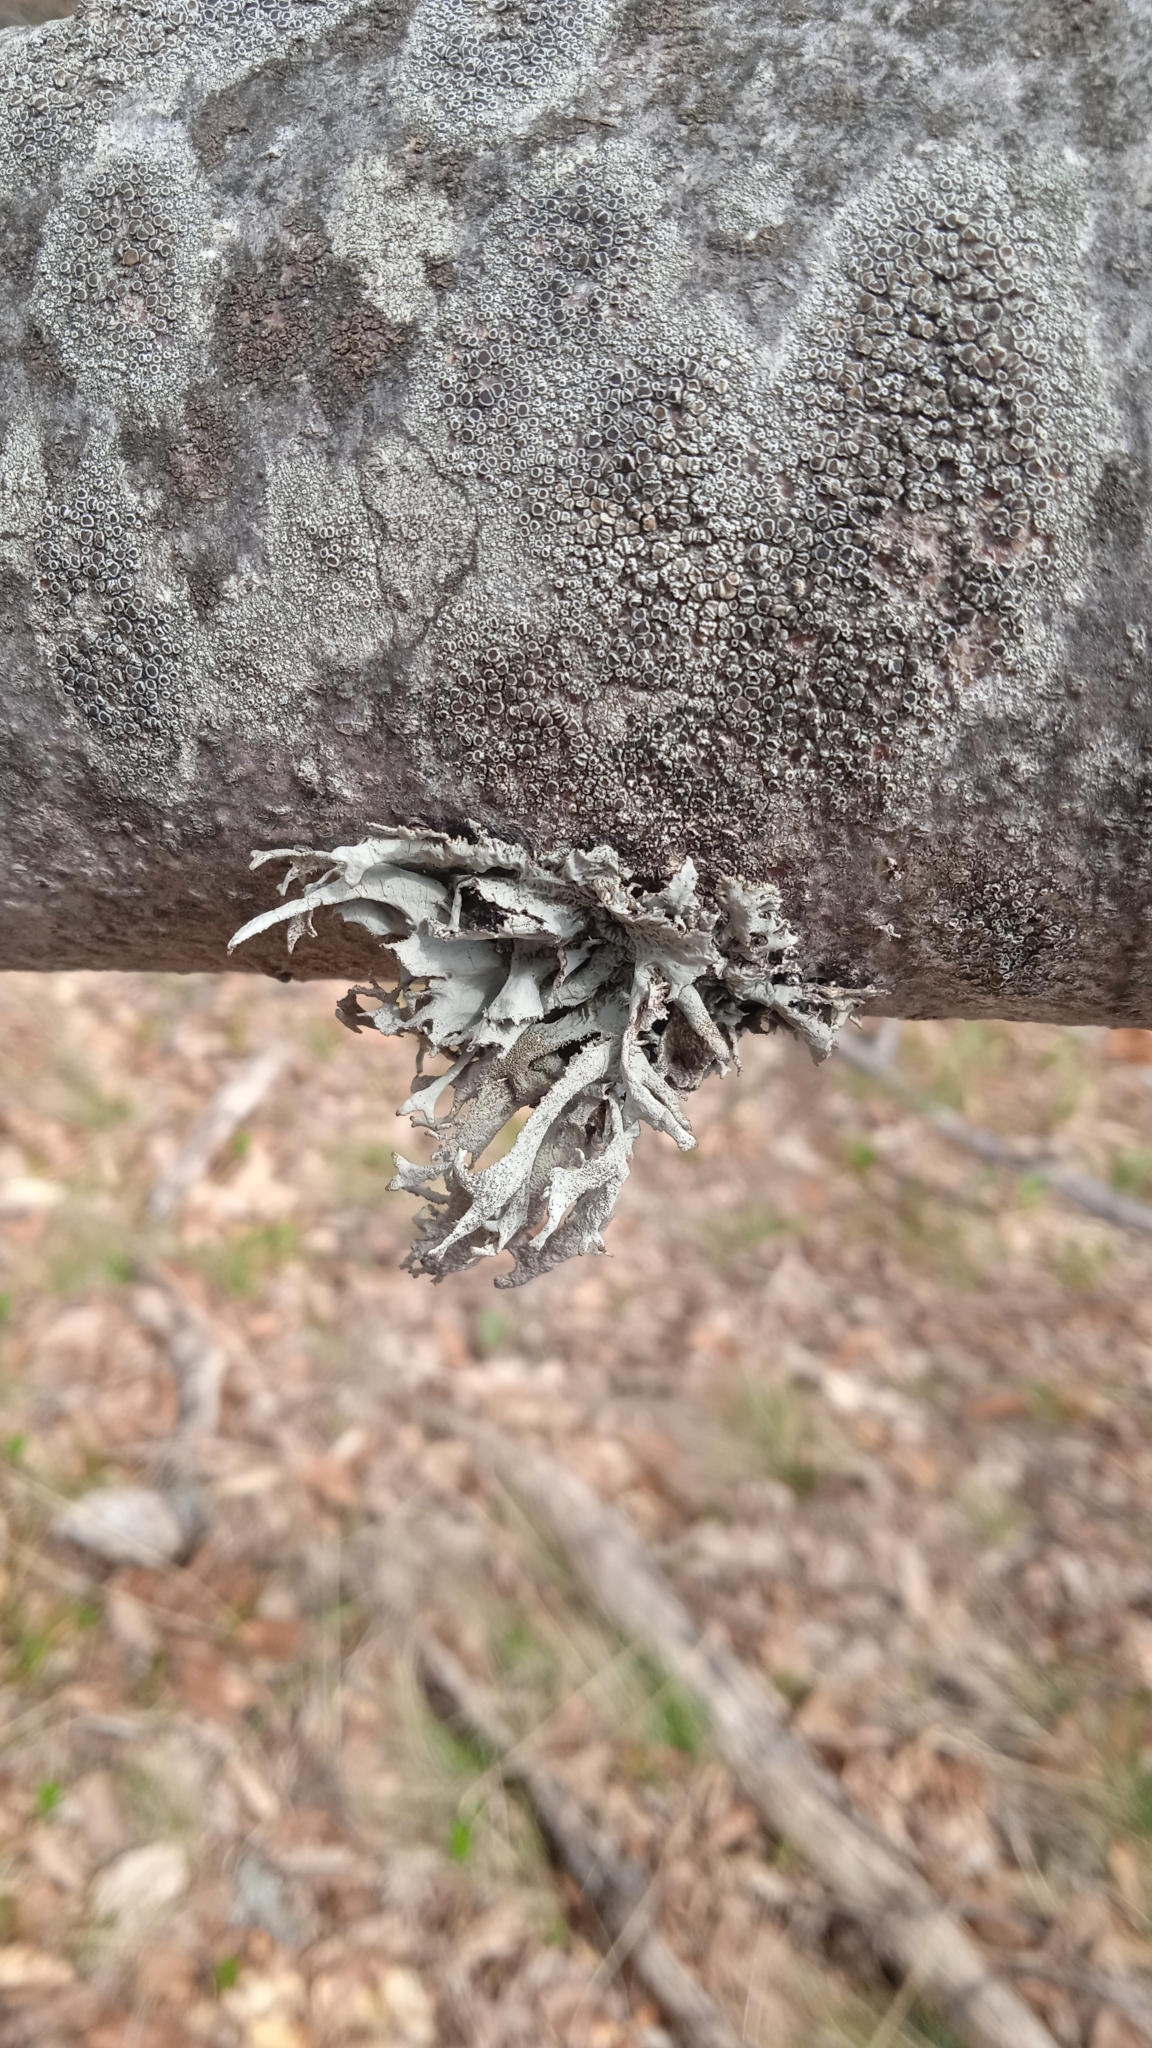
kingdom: Fungi
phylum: Ascomycota
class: Lecanoromycetes
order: Lecanorales
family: Parmeliaceae
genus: Pseudevernia
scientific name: Pseudevernia furfuracea
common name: Tree moss
